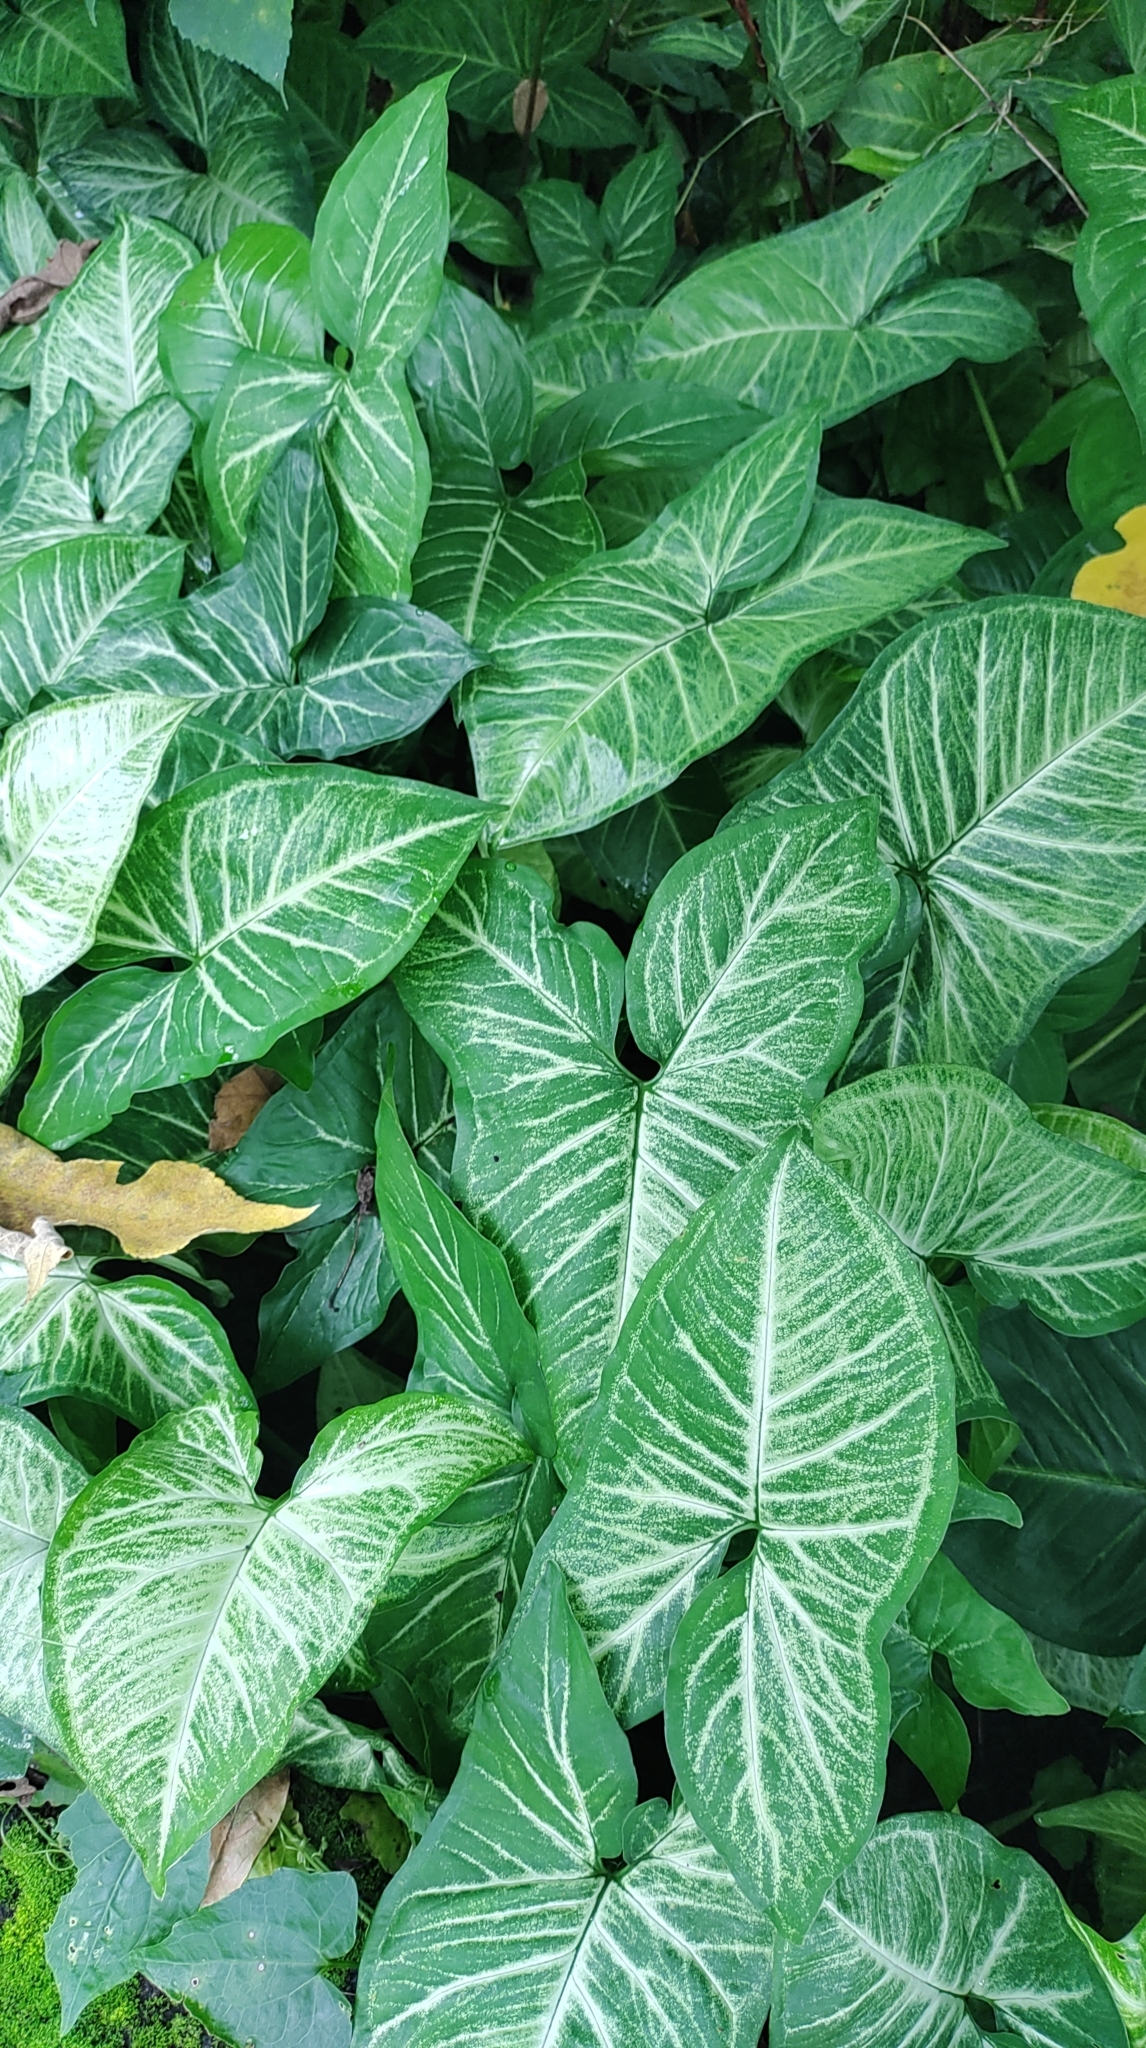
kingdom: Plantae
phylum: Tracheophyta
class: Liliopsida
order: Alismatales
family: Araceae
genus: Syngonium
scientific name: Syngonium podophyllum
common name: American evergreen
